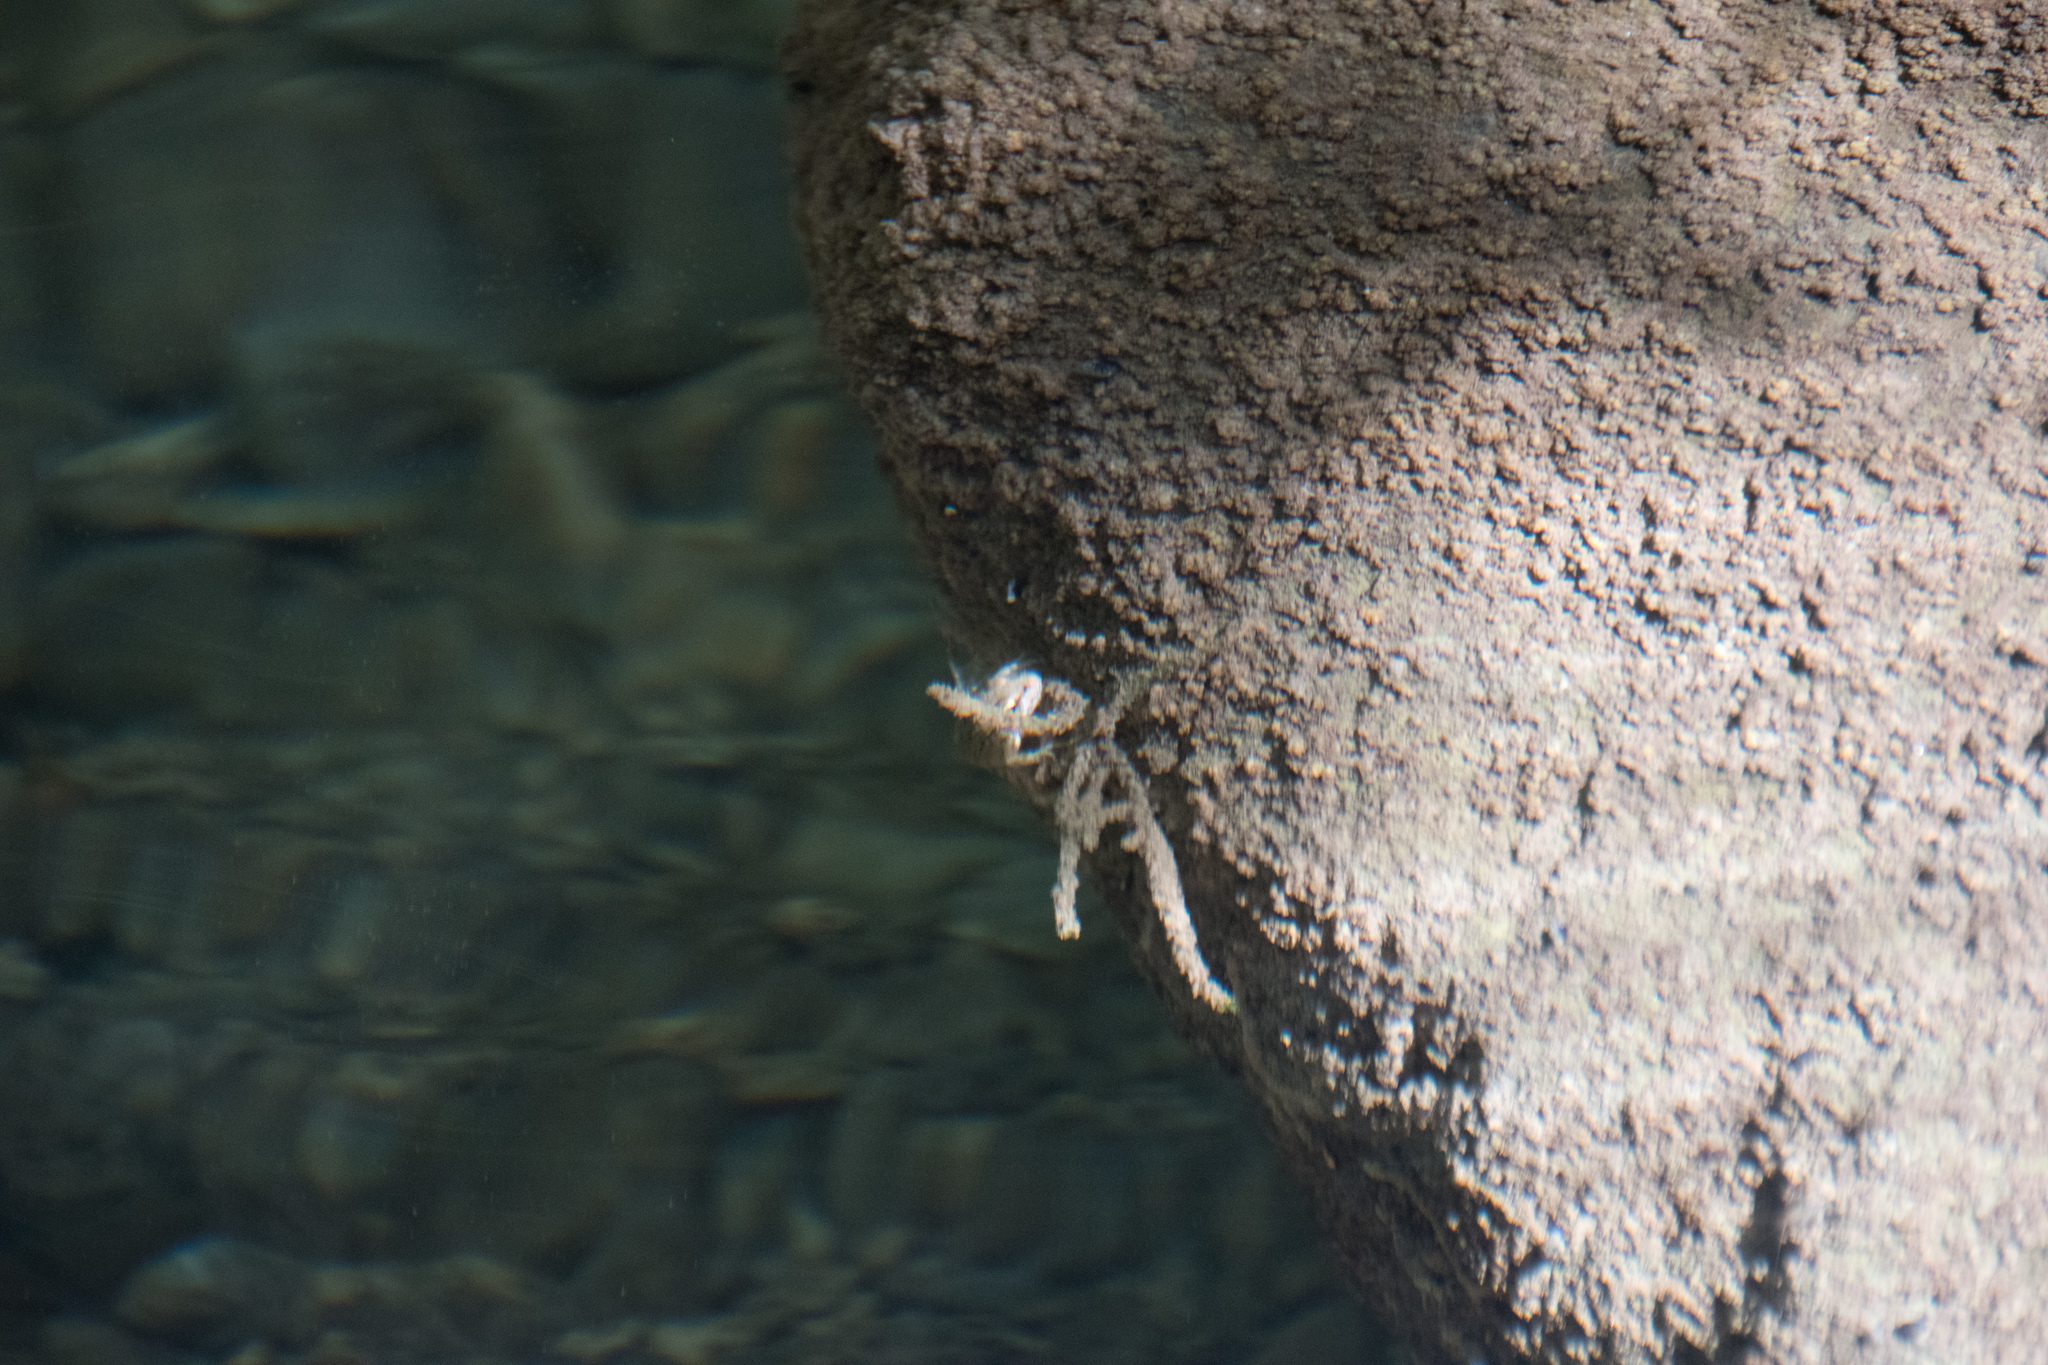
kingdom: Animalia
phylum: Chordata
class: Amphibia
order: Anura
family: Ranidae
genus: Pelophylax
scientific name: Pelophylax cretensis
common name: Cretan frog
